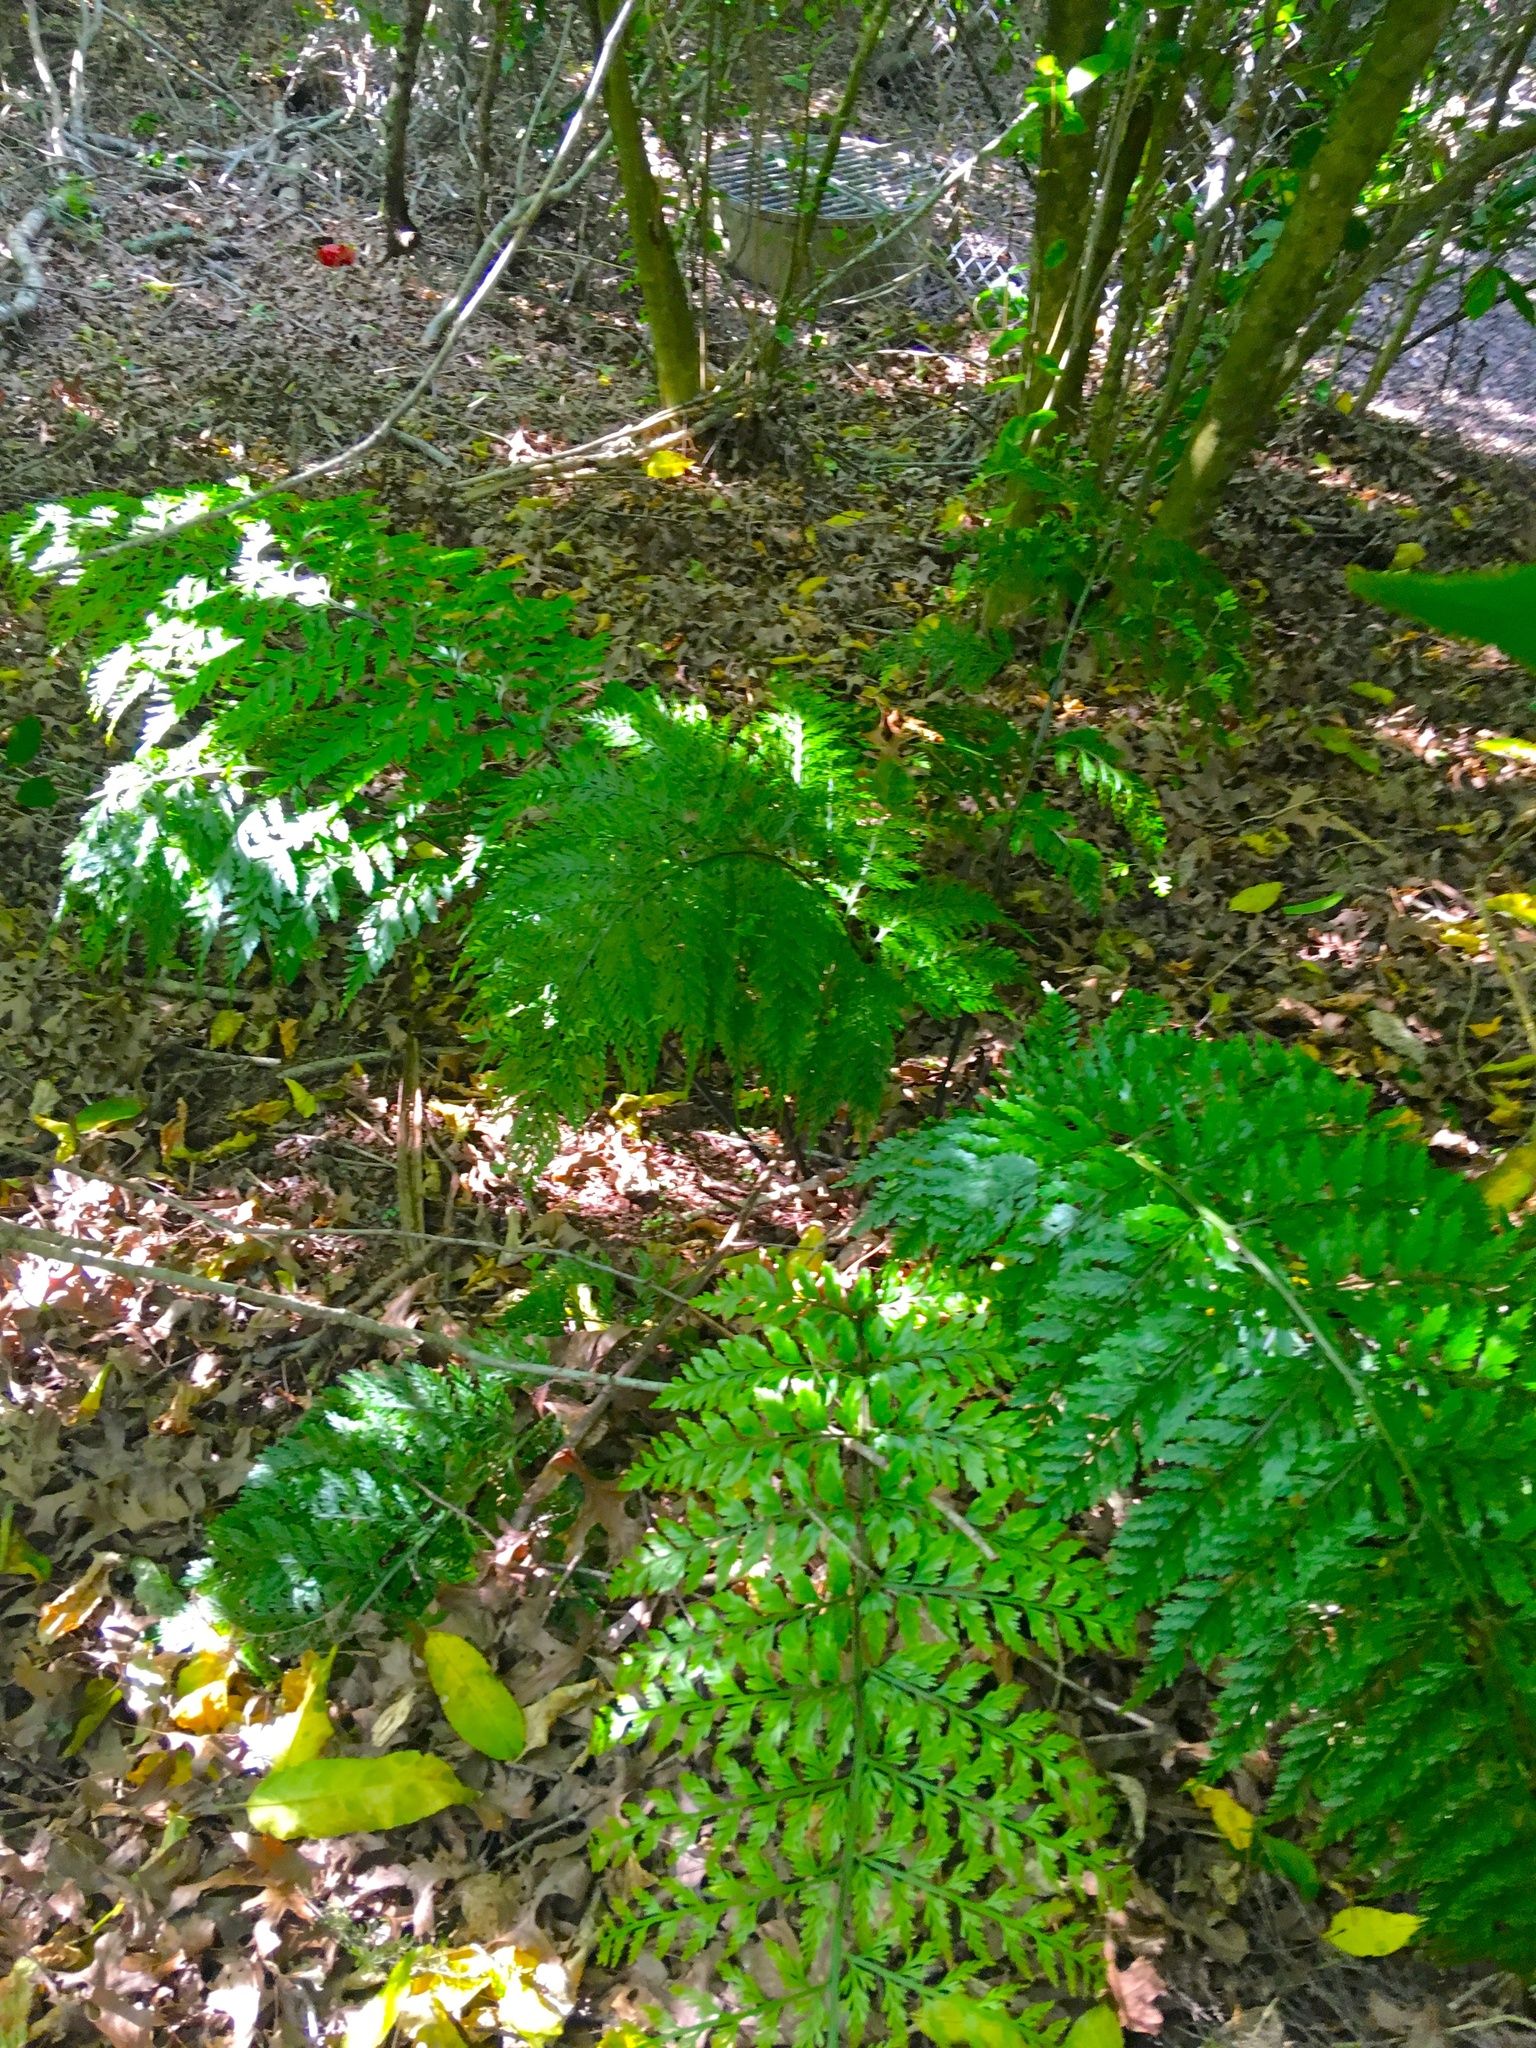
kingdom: Plantae
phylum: Tracheophyta
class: Polypodiopsida
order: Polypodiales
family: Aspleniaceae
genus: Asplenium
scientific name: Asplenium lucrosum
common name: False hen-and-chickens fern
